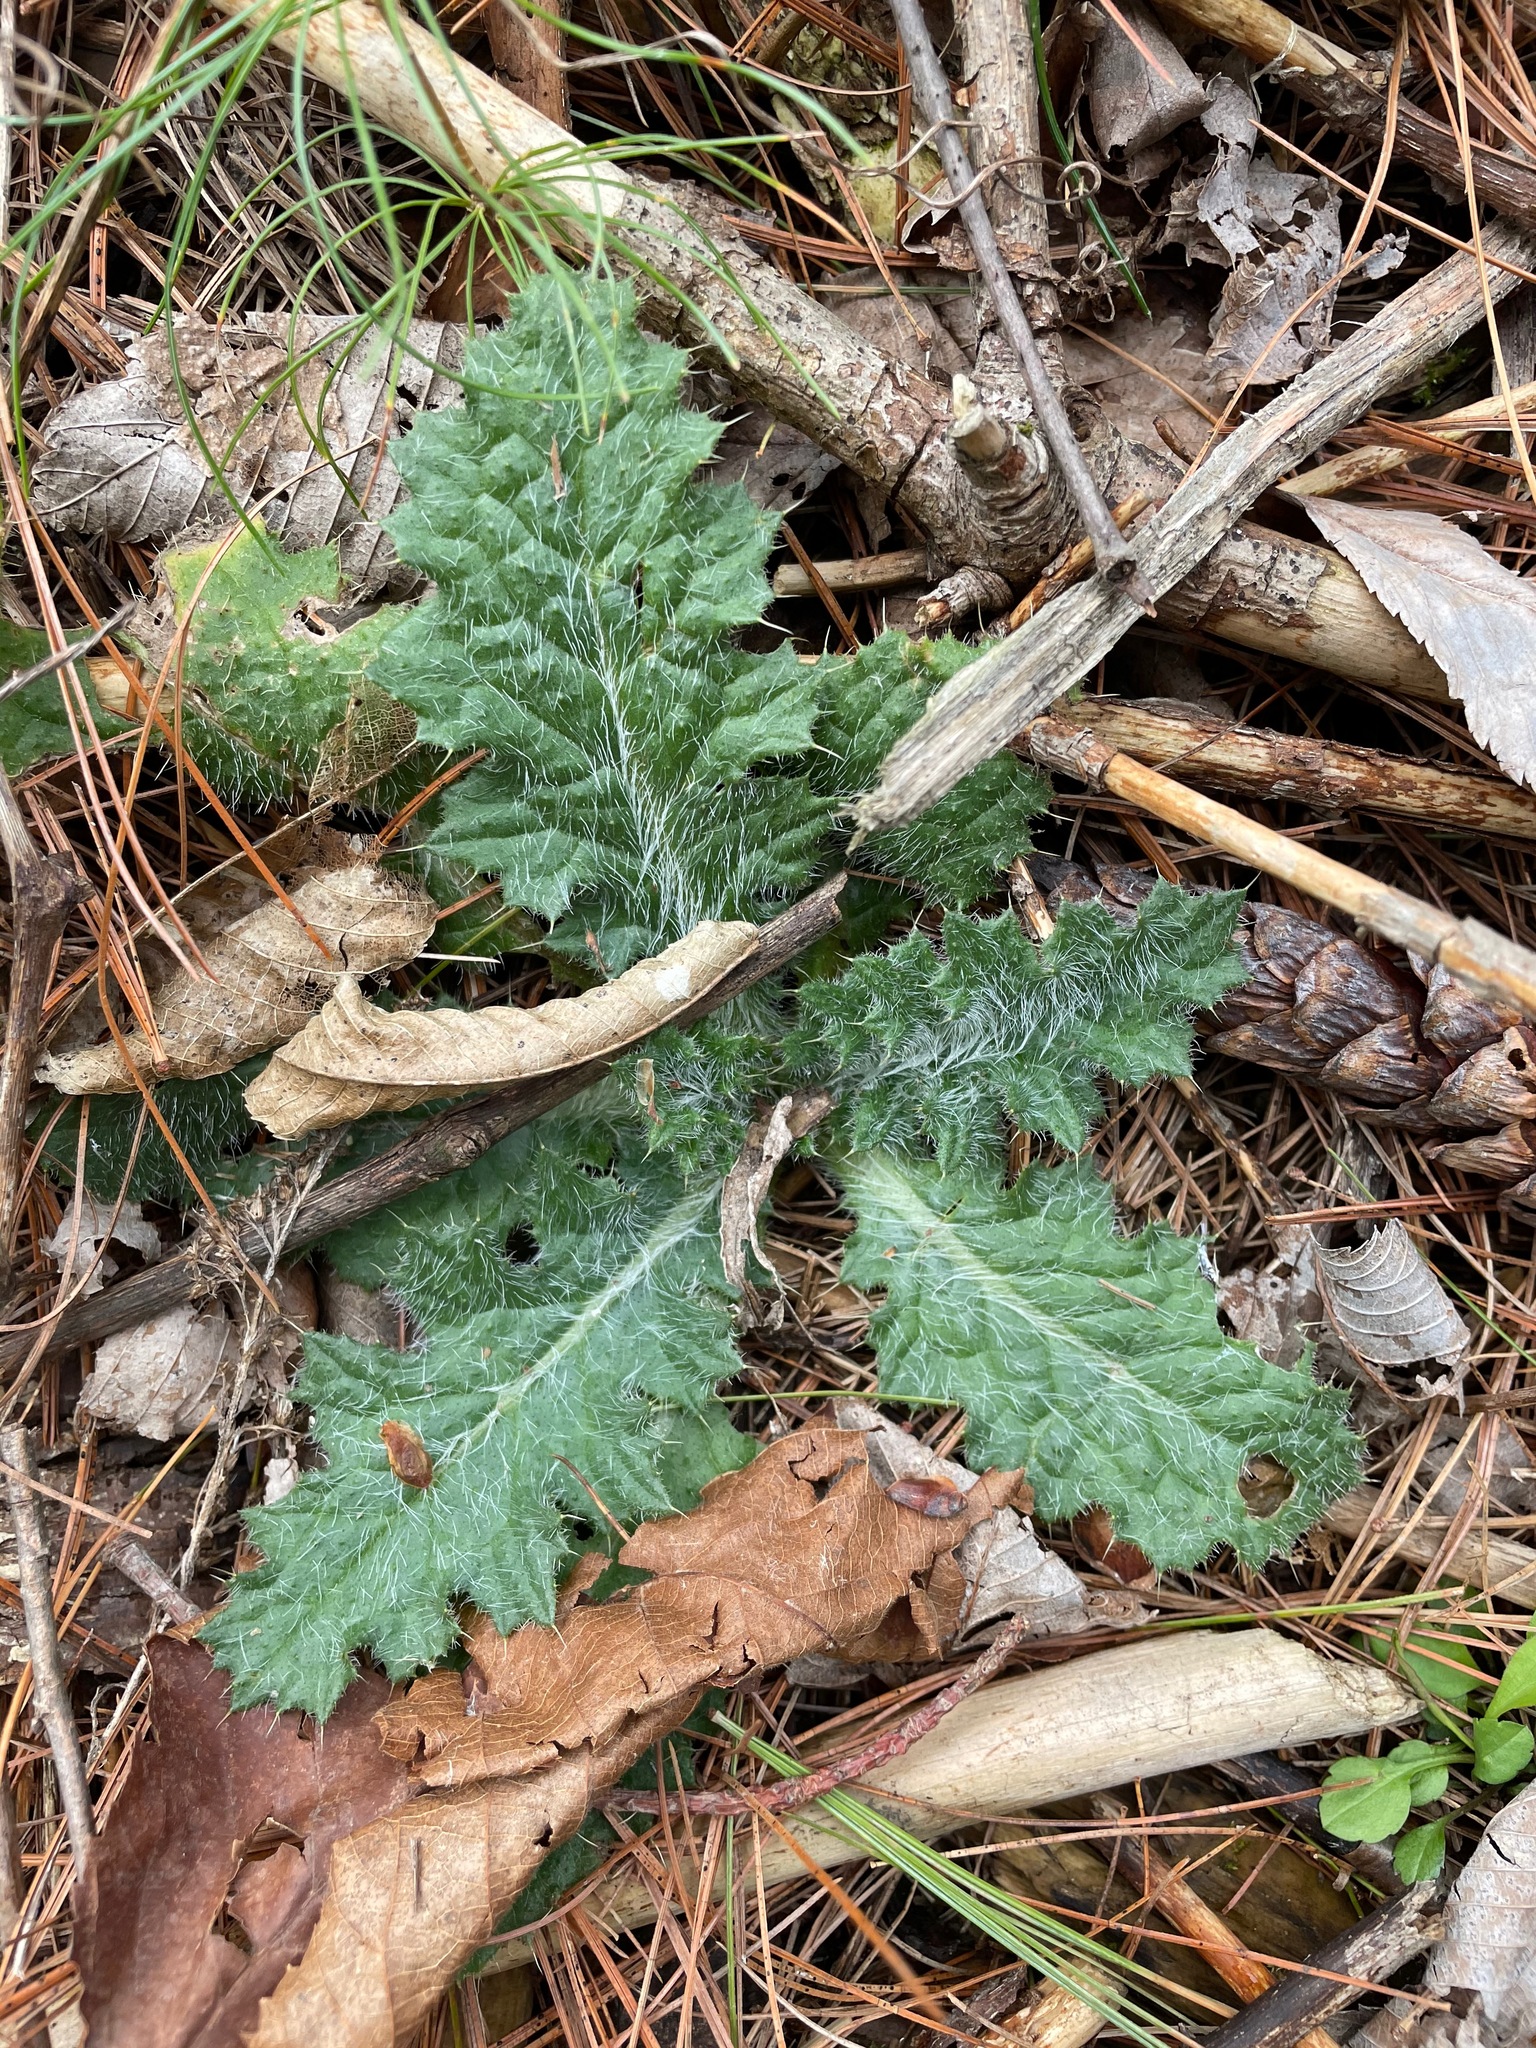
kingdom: Plantae
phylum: Tracheophyta
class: Magnoliopsida
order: Asterales
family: Asteraceae
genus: Cirsium
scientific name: Cirsium vulgare
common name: Bull thistle
